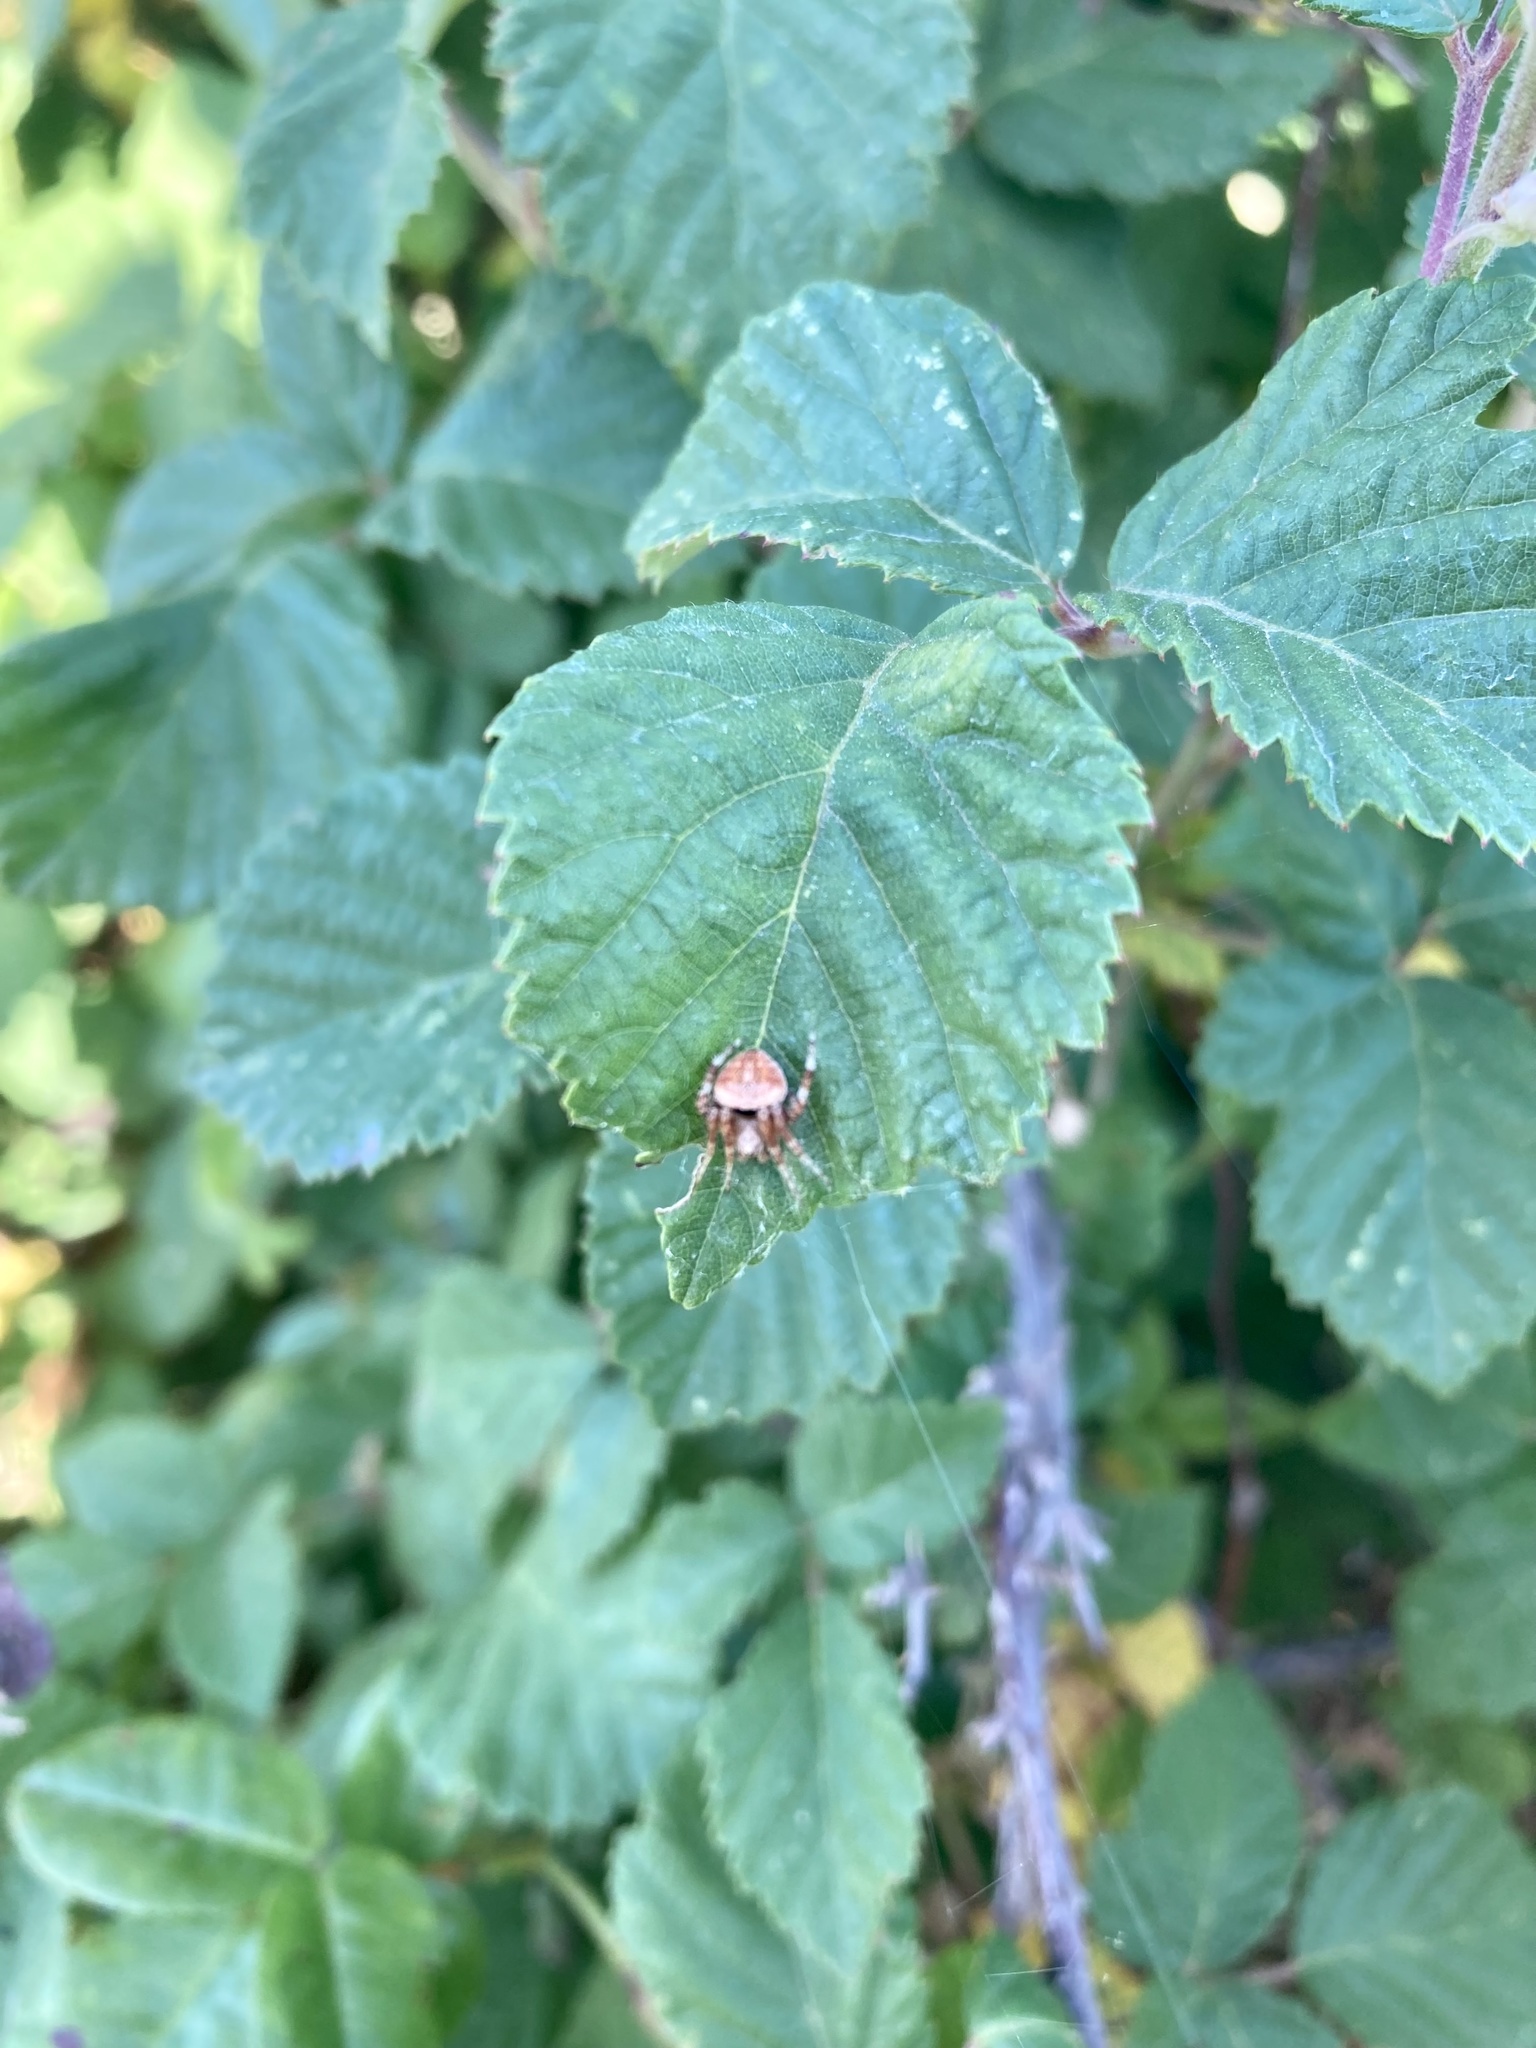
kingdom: Animalia
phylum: Arthropoda
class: Arachnida
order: Araneae
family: Araneidae
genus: Neoscona
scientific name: Neoscona subfusca
